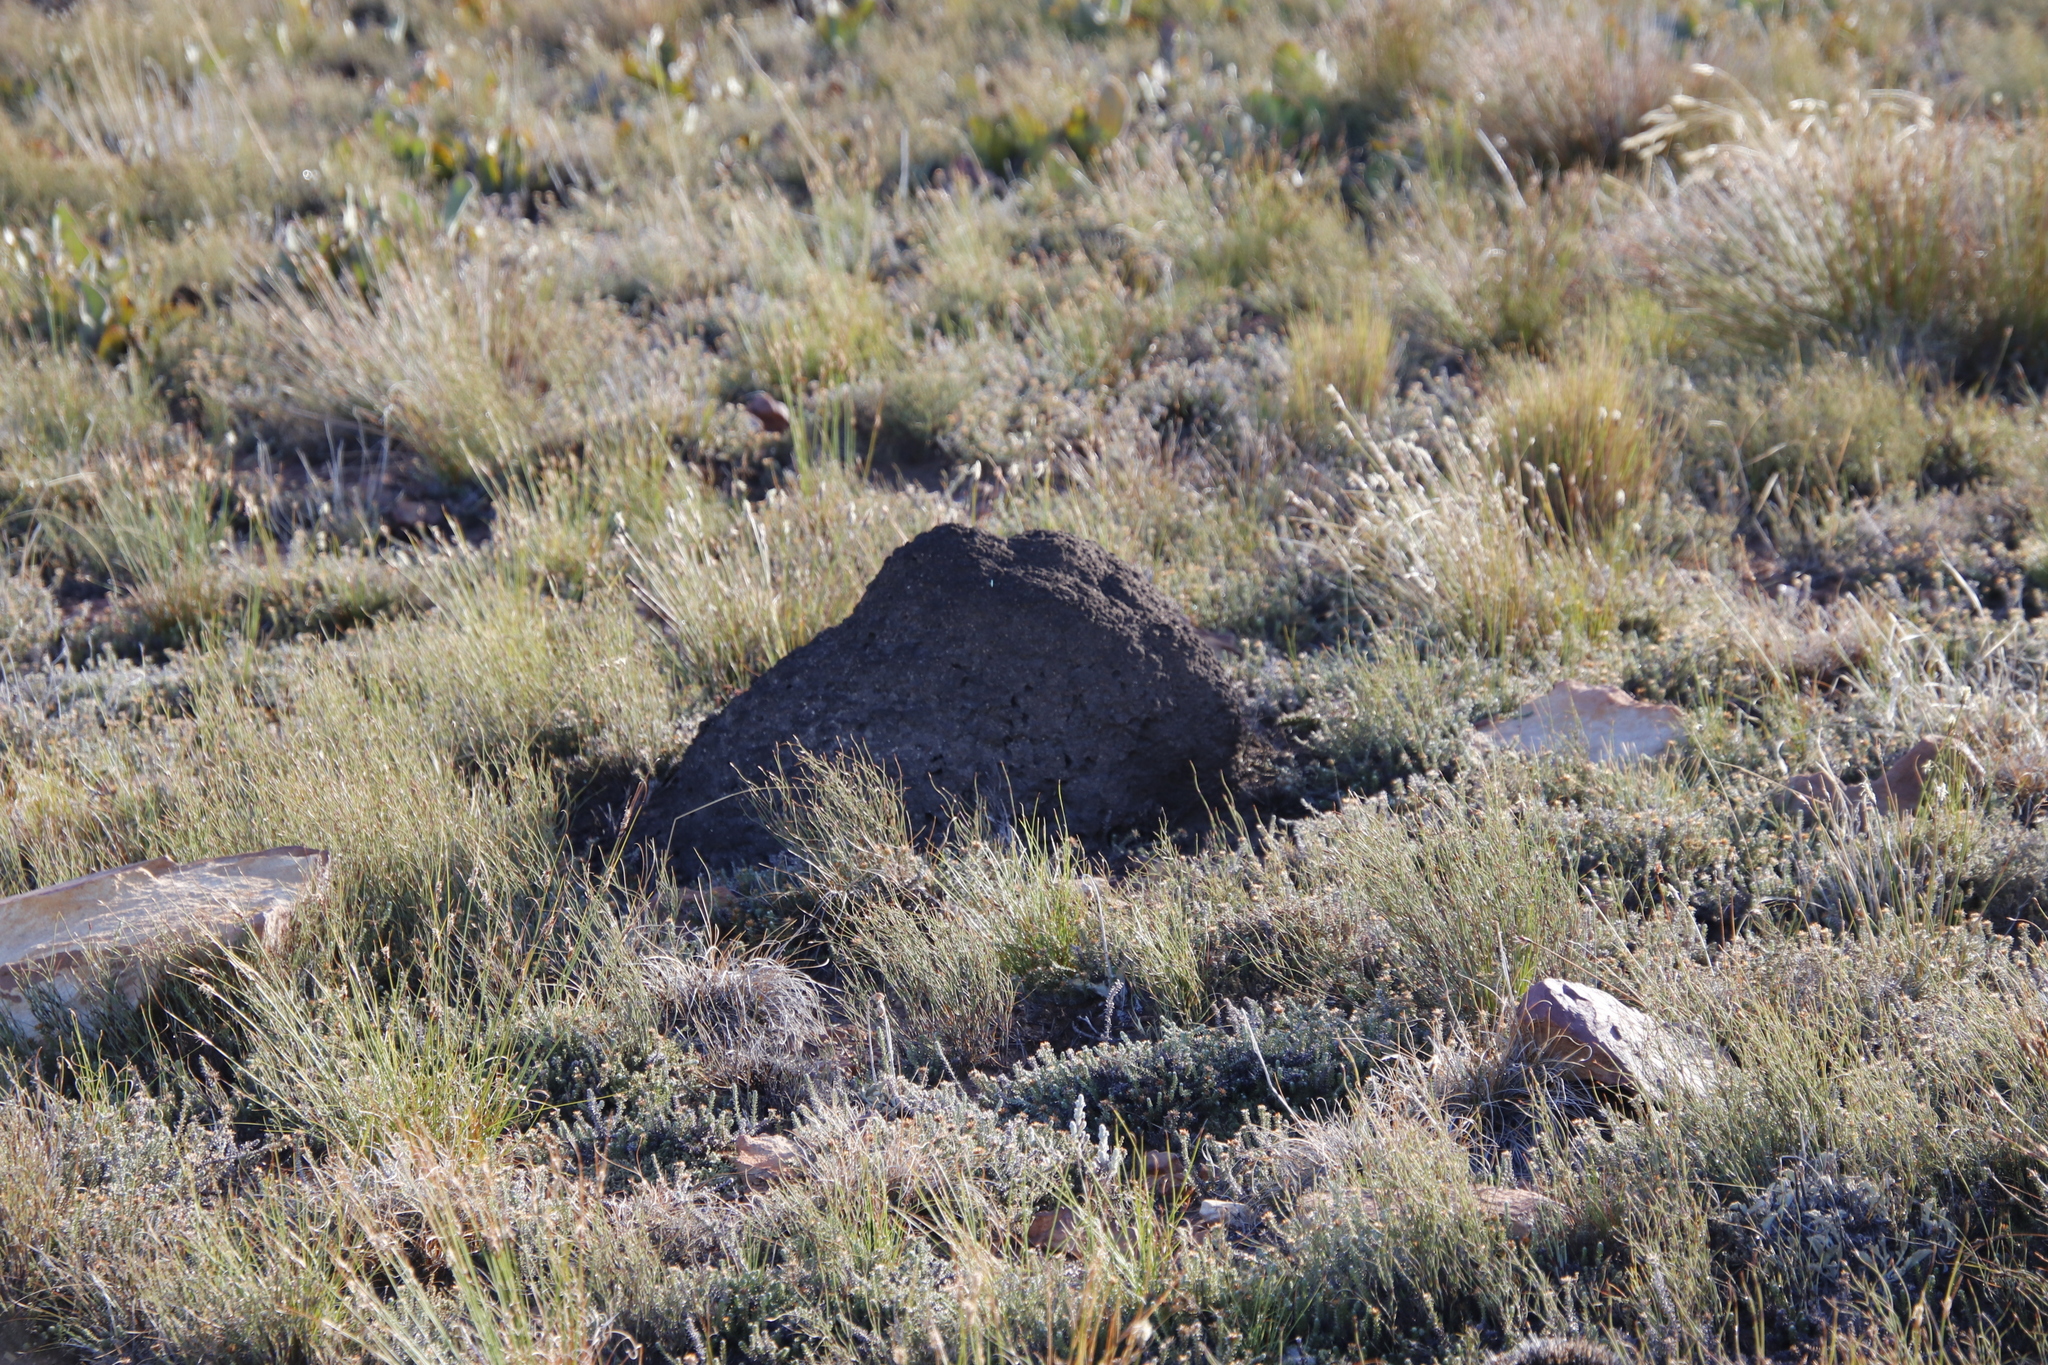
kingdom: Animalia
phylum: Arthropoda
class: Insecta
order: Blattodea
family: Termitidae
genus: Amitermes
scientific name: Amitermes hastatus
